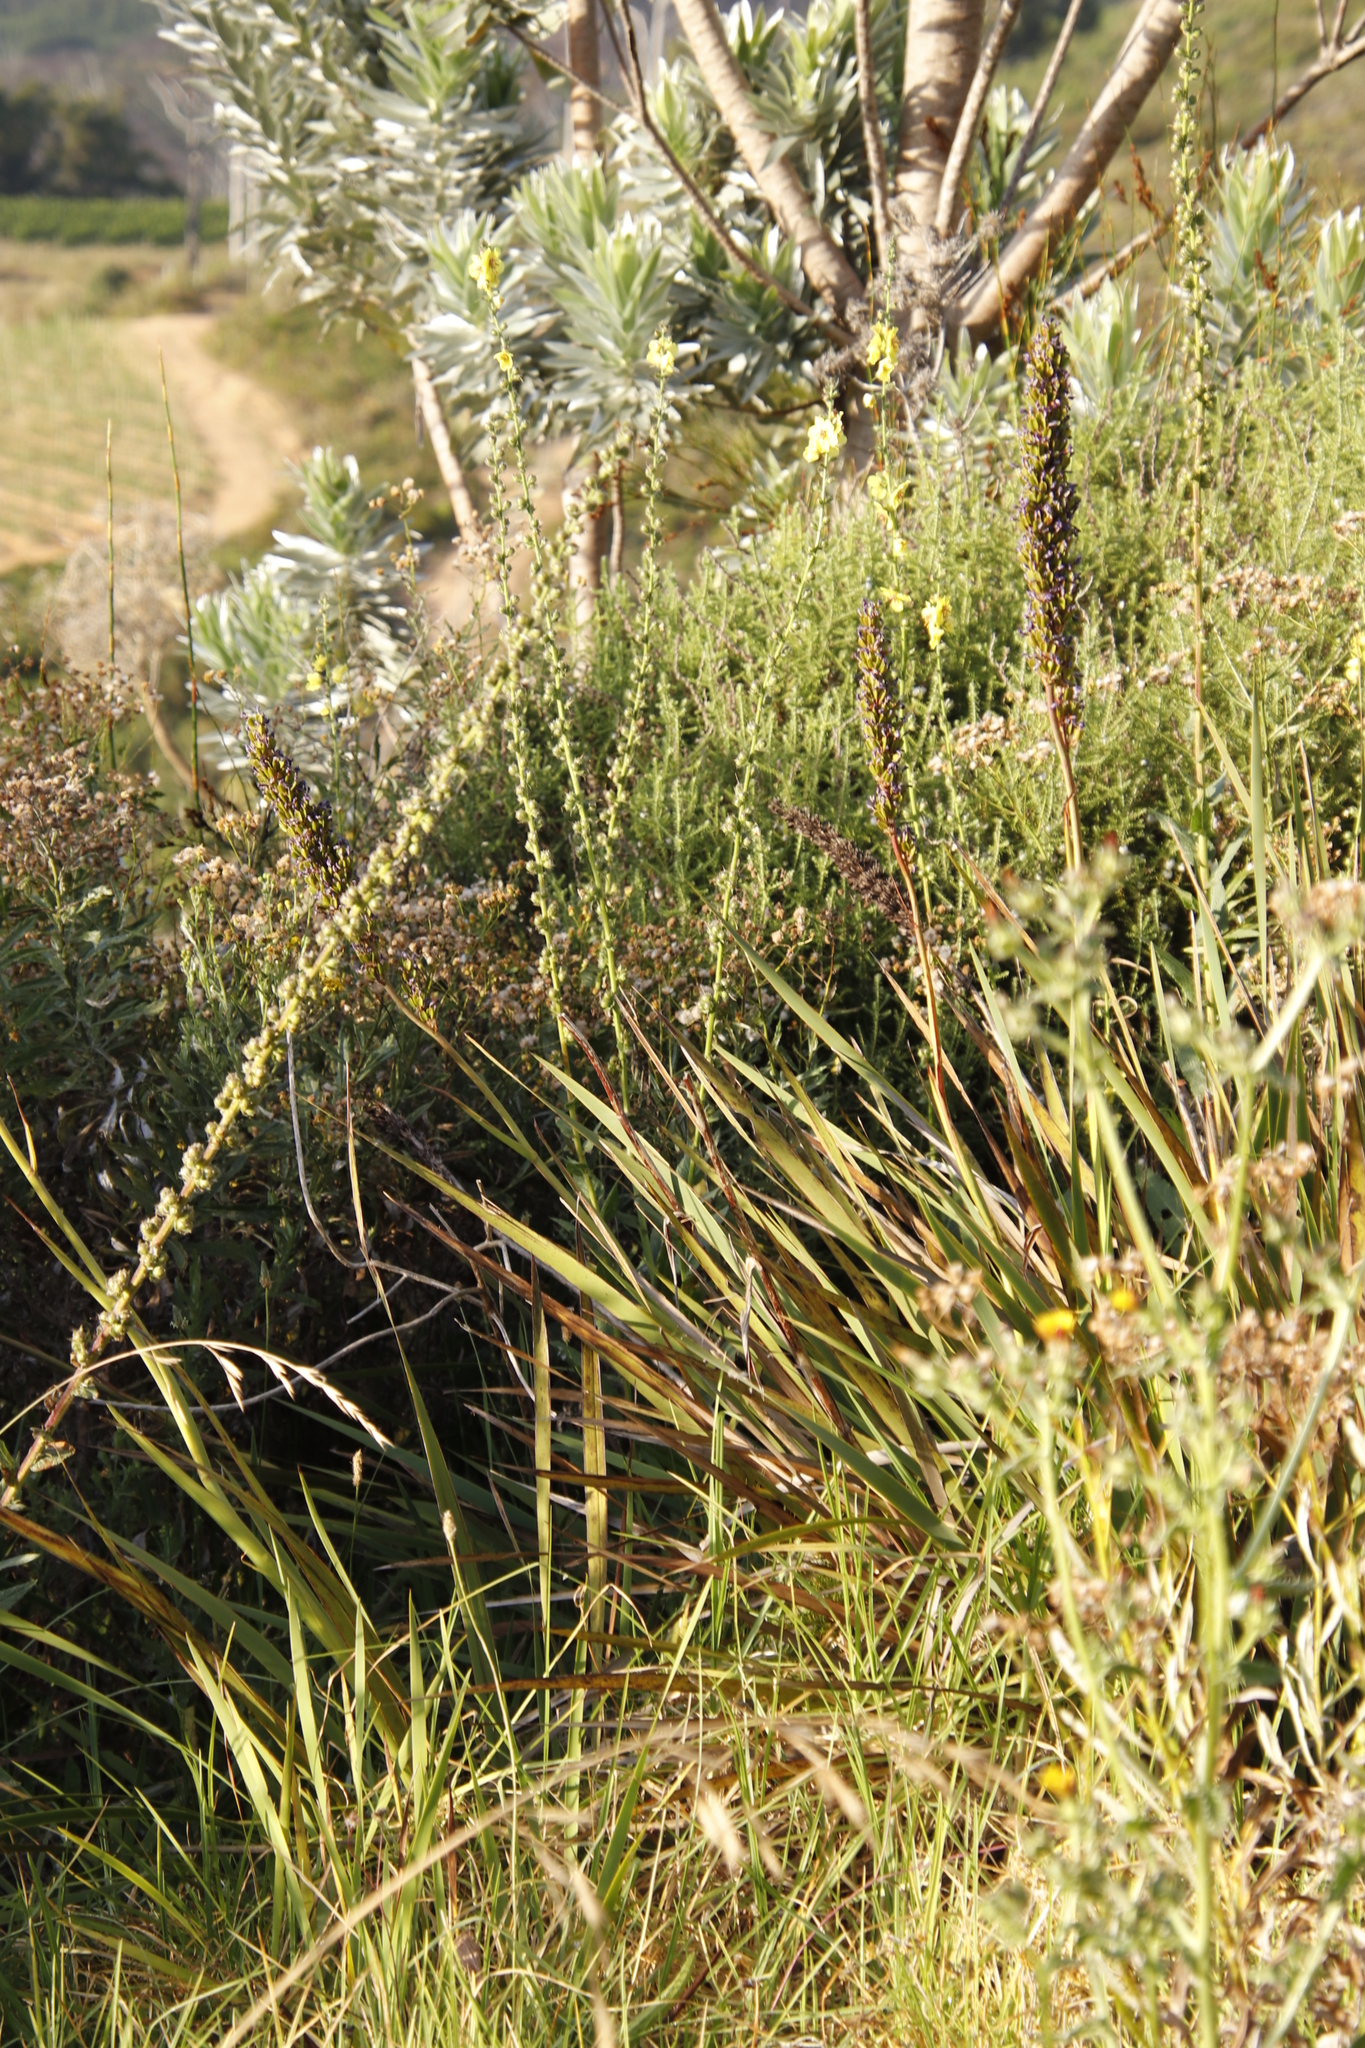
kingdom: Plantae
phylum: Tracheophyta
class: Liliopsida
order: Asparagales
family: Iridaceae
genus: Aristea
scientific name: Aristea capitata
